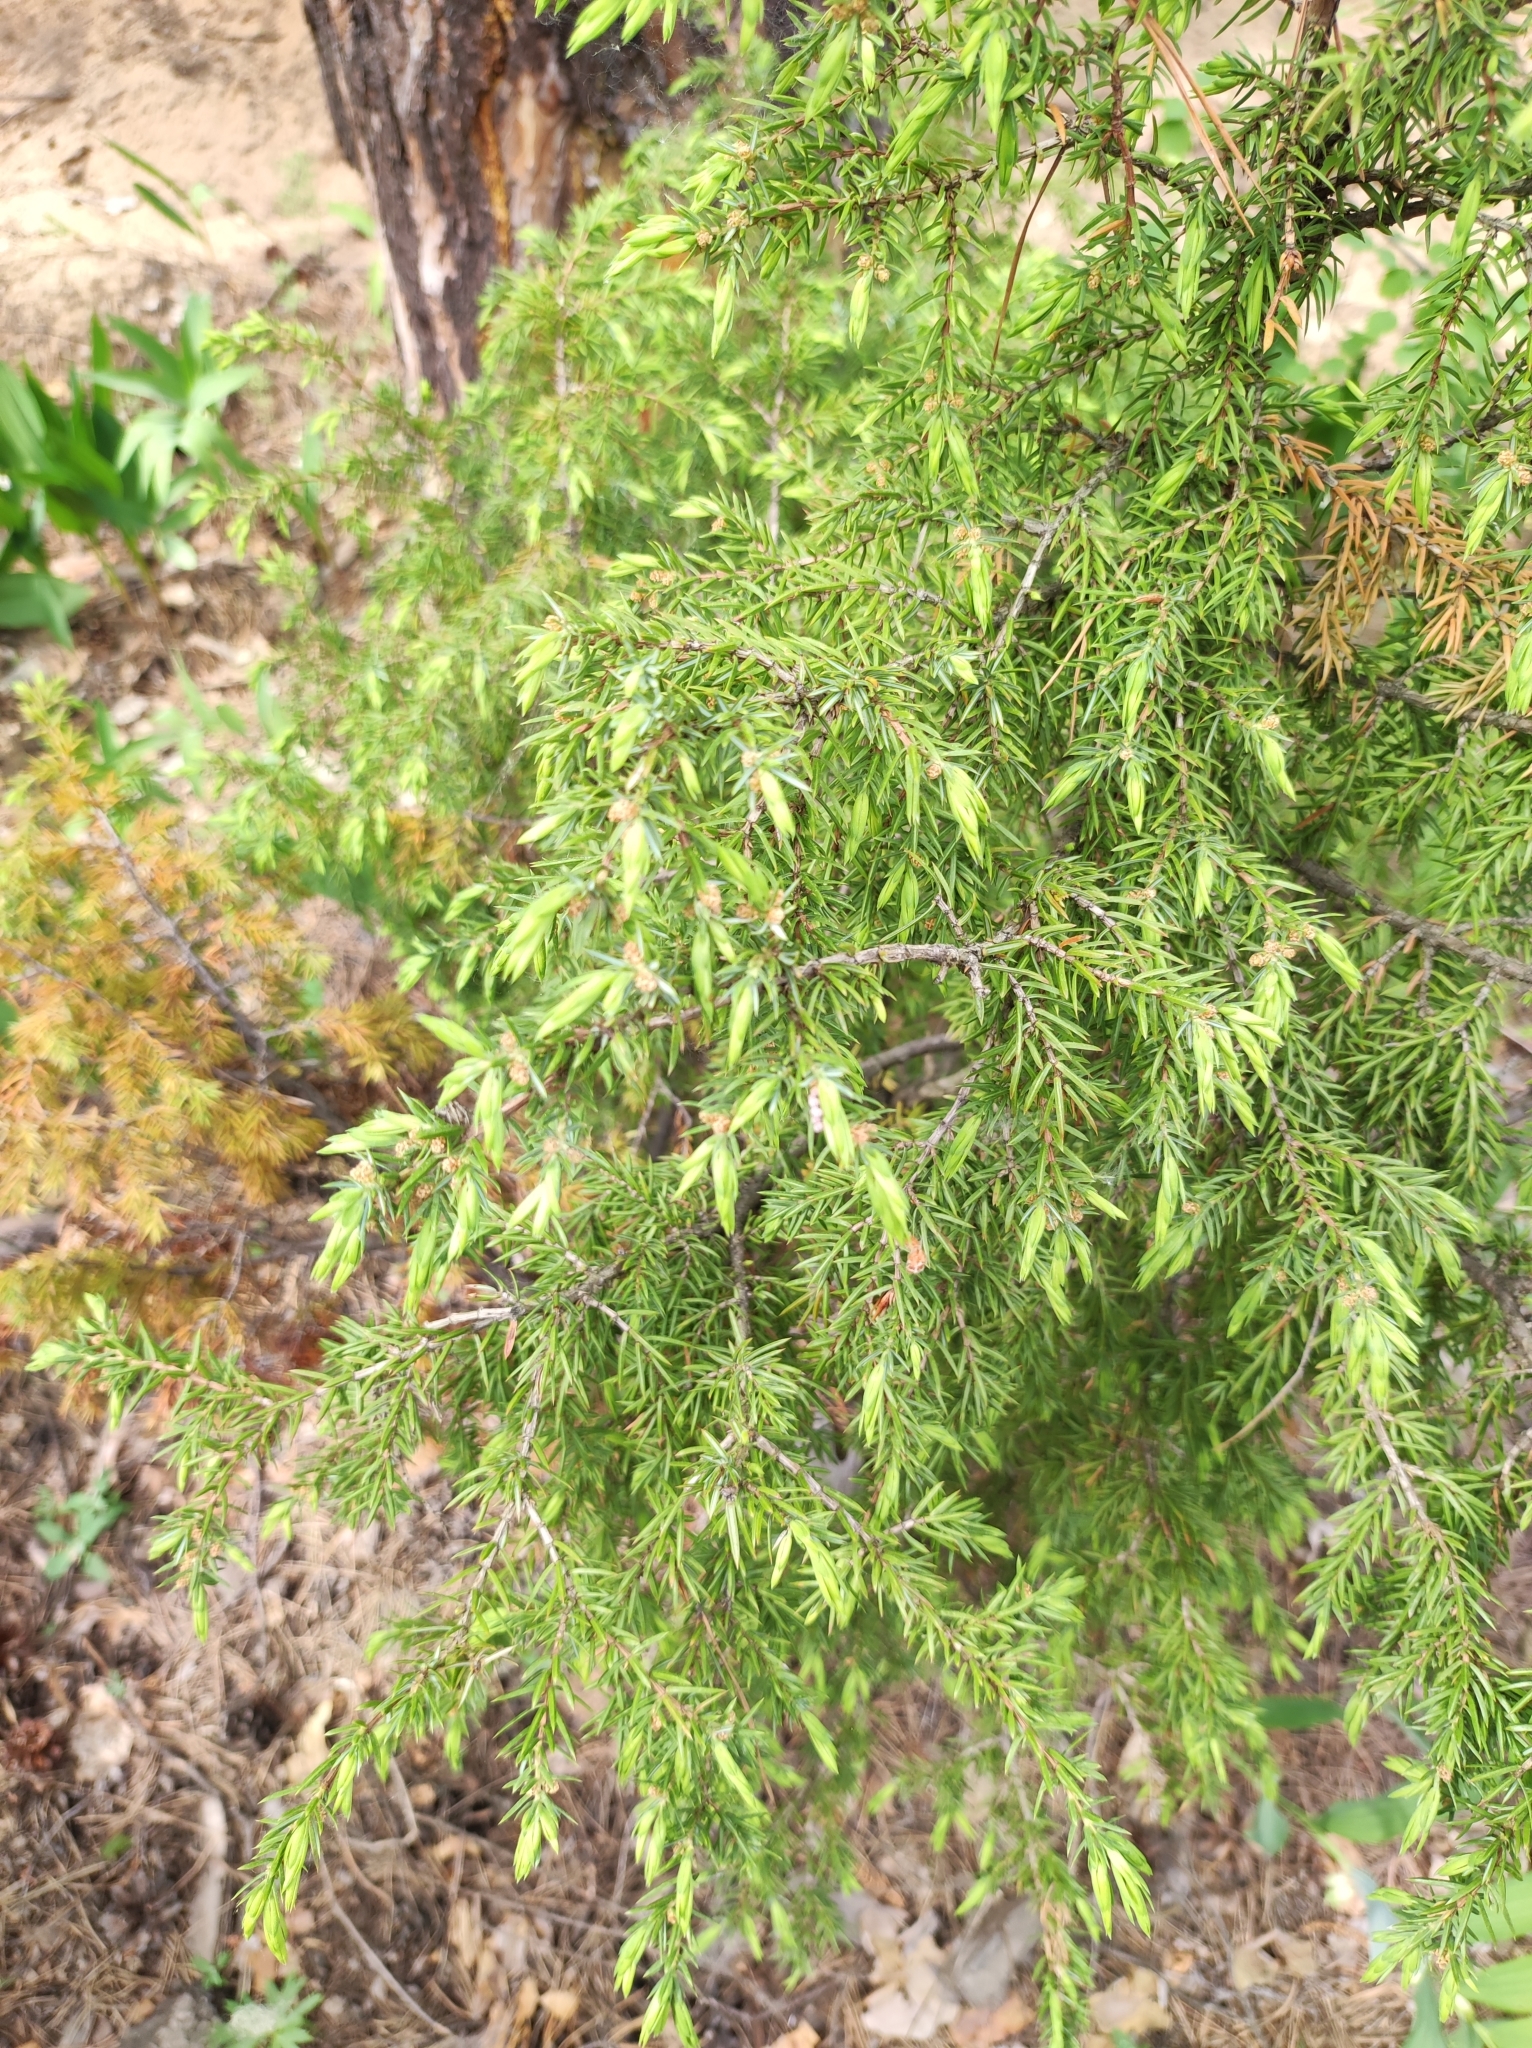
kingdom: Plantae
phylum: Tracheophyta
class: Pinopsida
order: Pinales
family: Cupressaceae
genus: Juniperus
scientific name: Juniperus communis
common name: Common juniper
